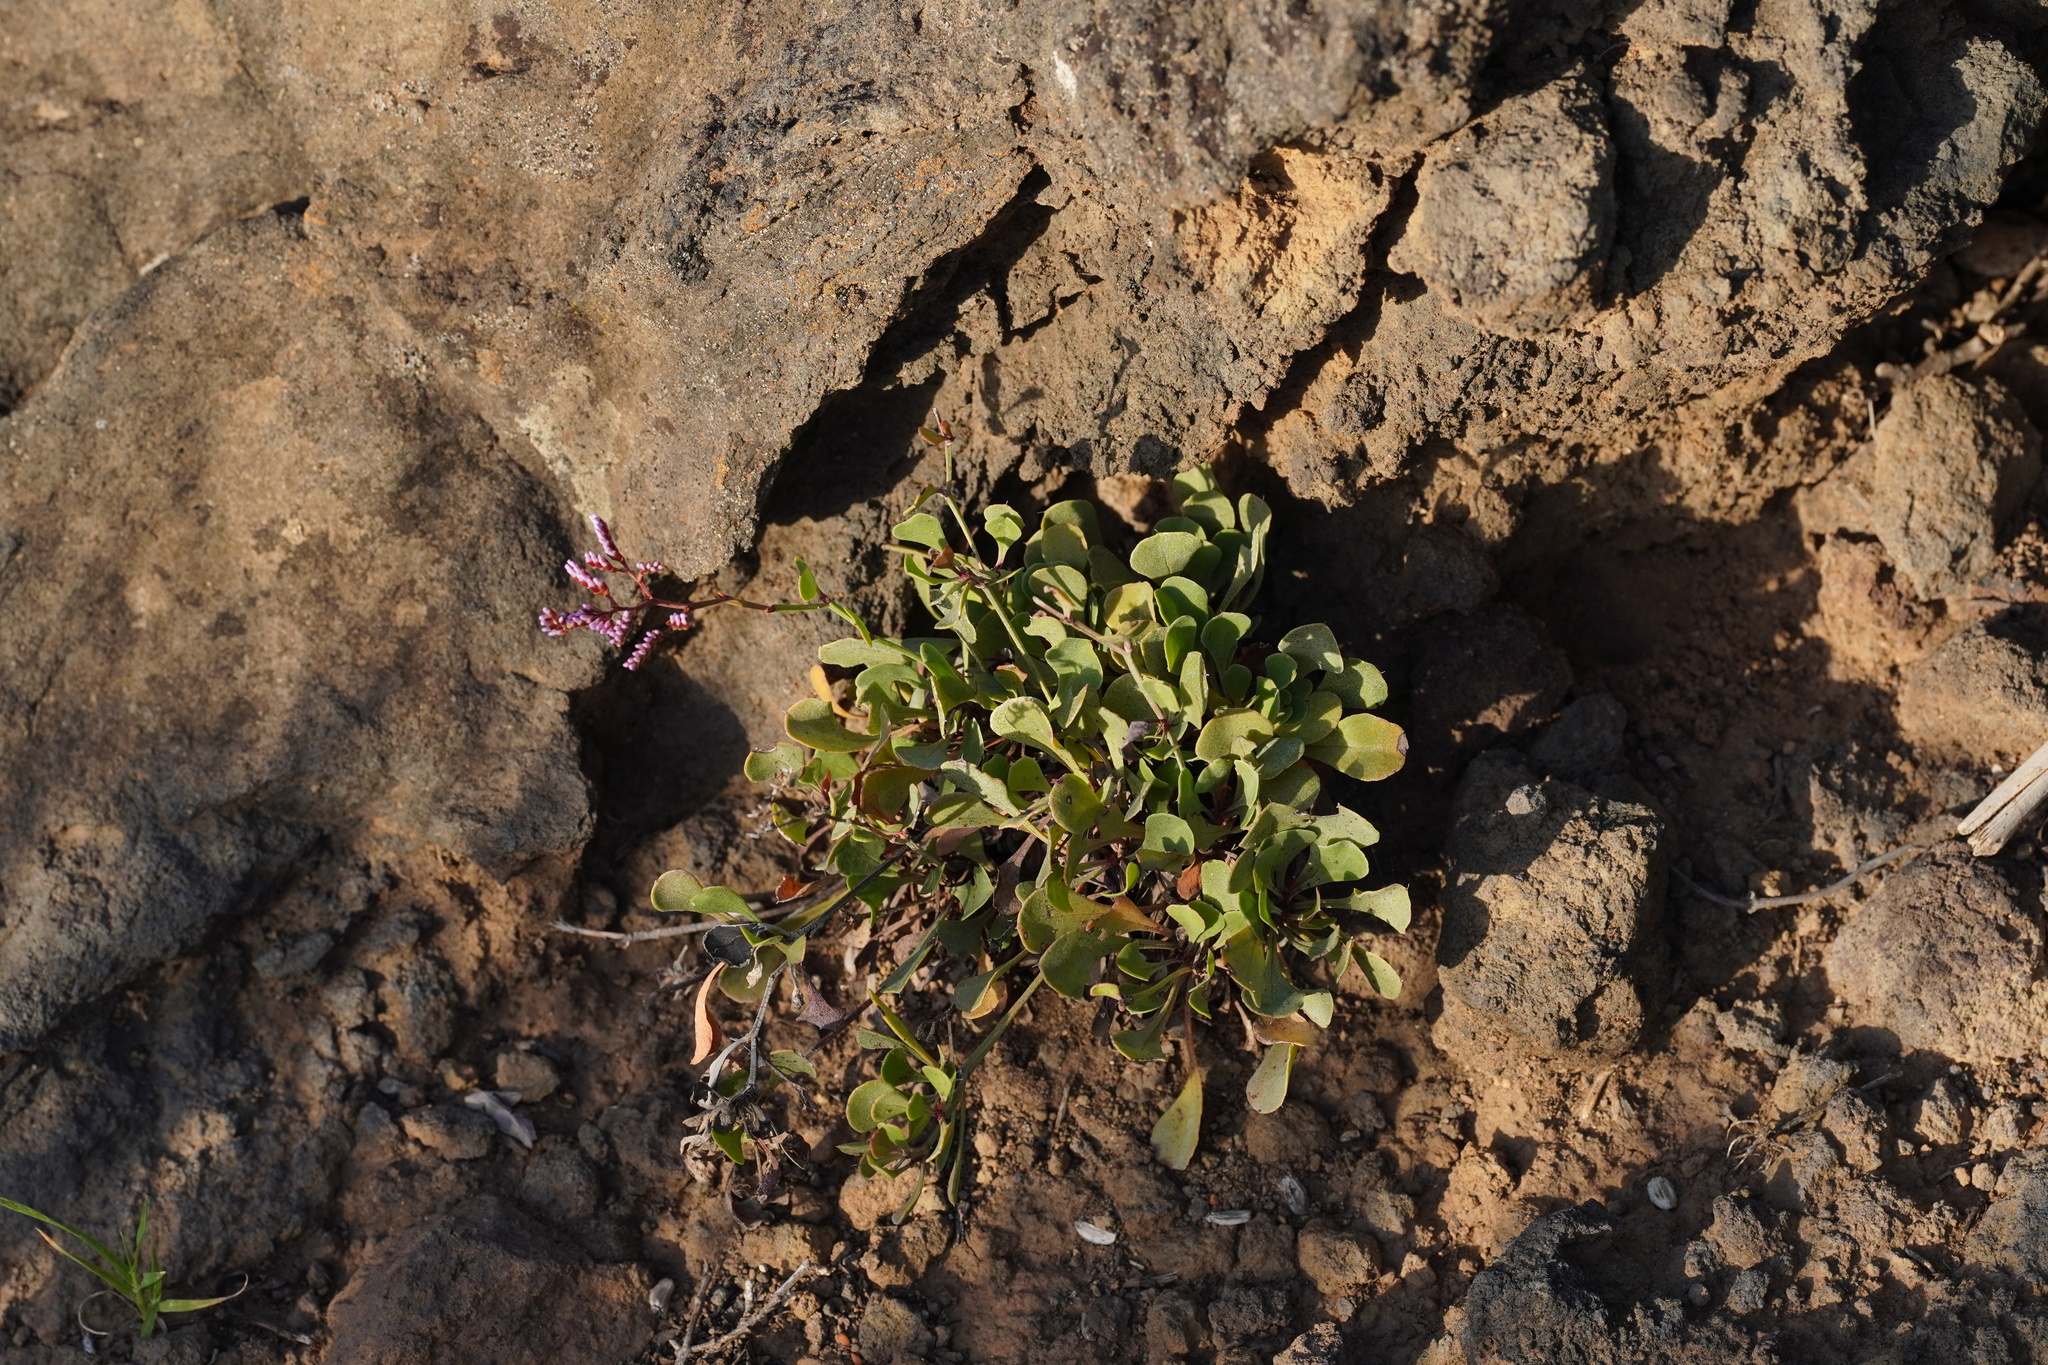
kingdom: Plantae
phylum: Tracheophyta
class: Magnoliopsida
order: Caryophyllales
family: Plumbaginaceae
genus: Limonium
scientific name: Limonium pectinatum
